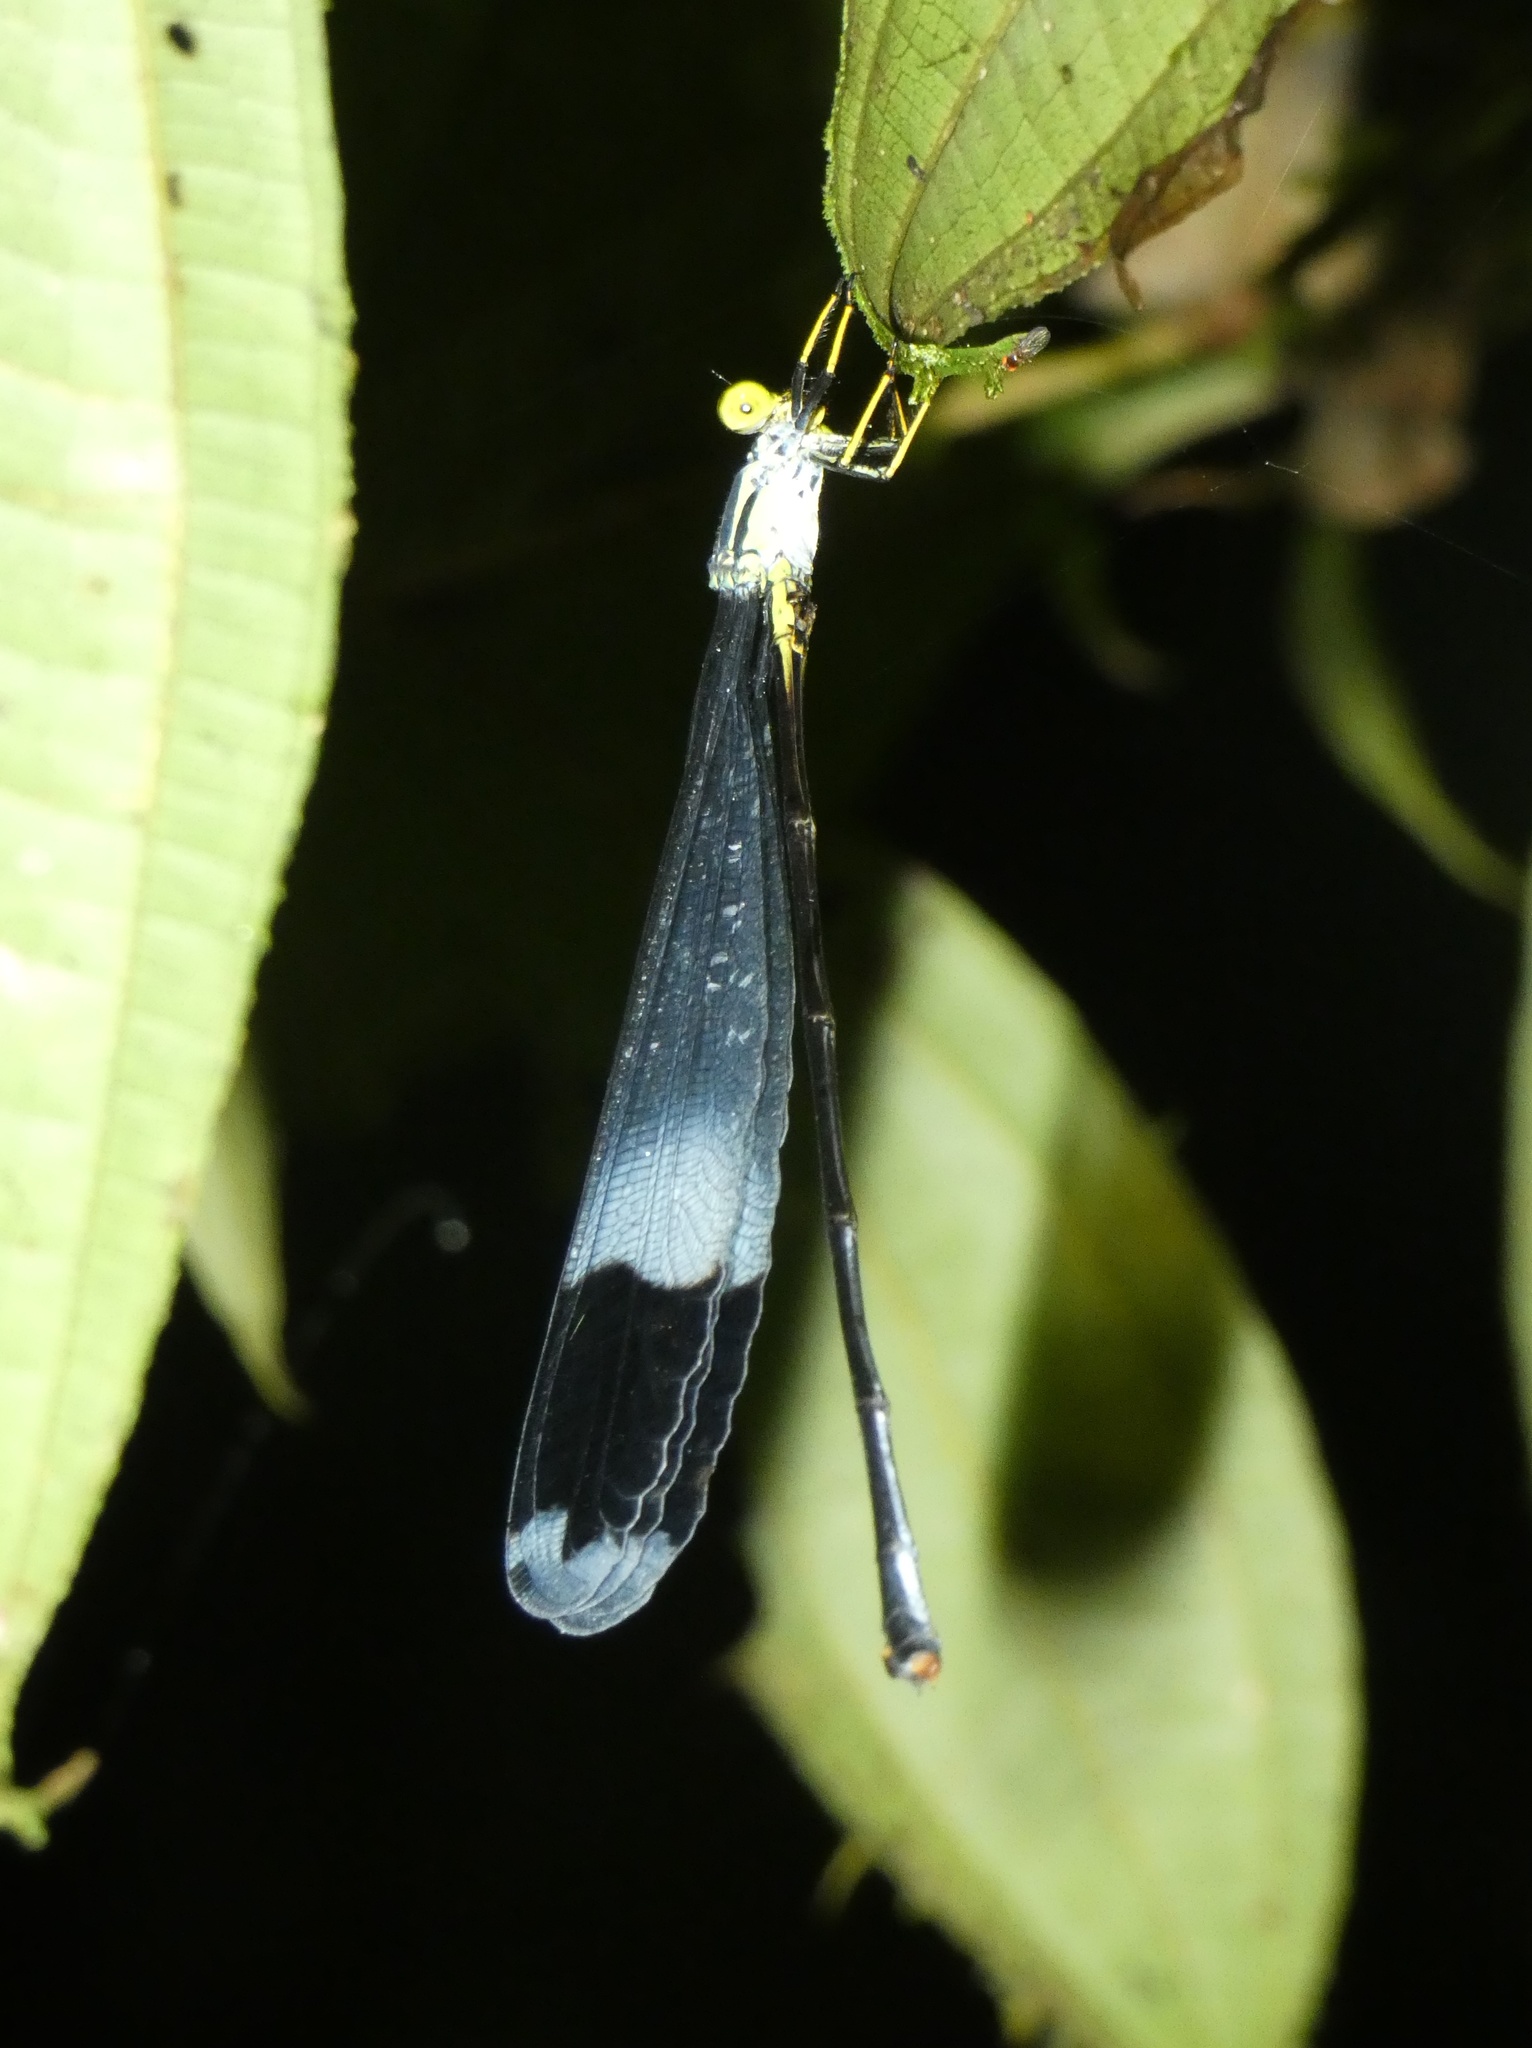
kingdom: Animalia
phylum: Arthropoda
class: Insecta
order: Odonata
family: Coenagrionidae
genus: Megaloprepus
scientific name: Megaloprepus caerulatus
